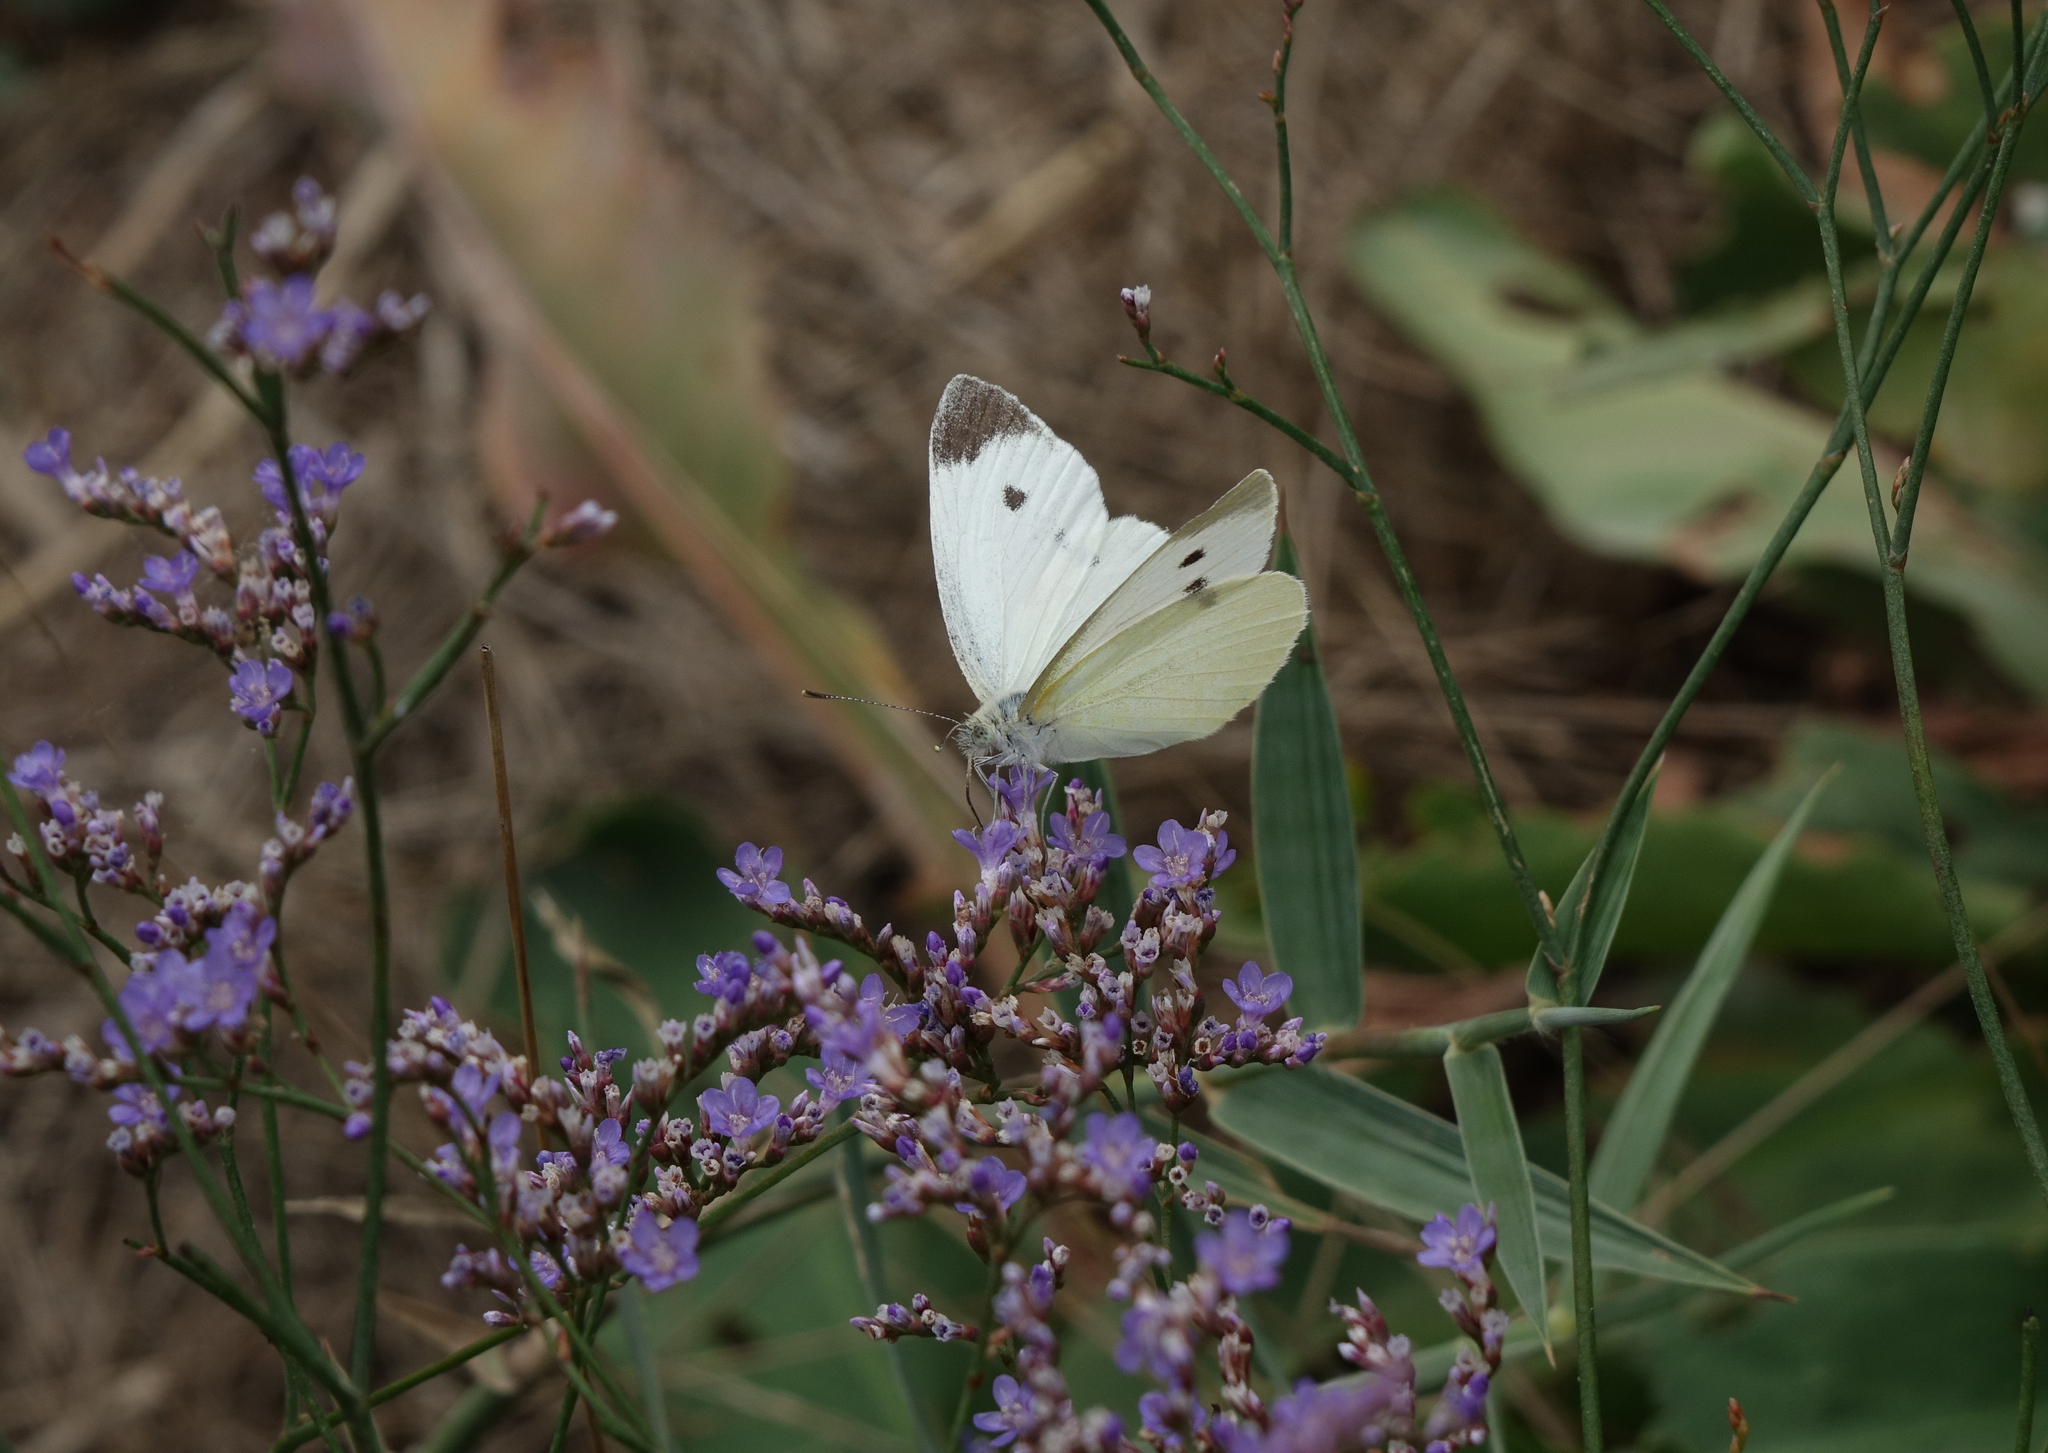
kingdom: Animalia
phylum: Arthropoda
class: Insecta
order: Lepidoptera
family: Pieridae
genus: Pieris
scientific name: Pieris rapae
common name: Small white
